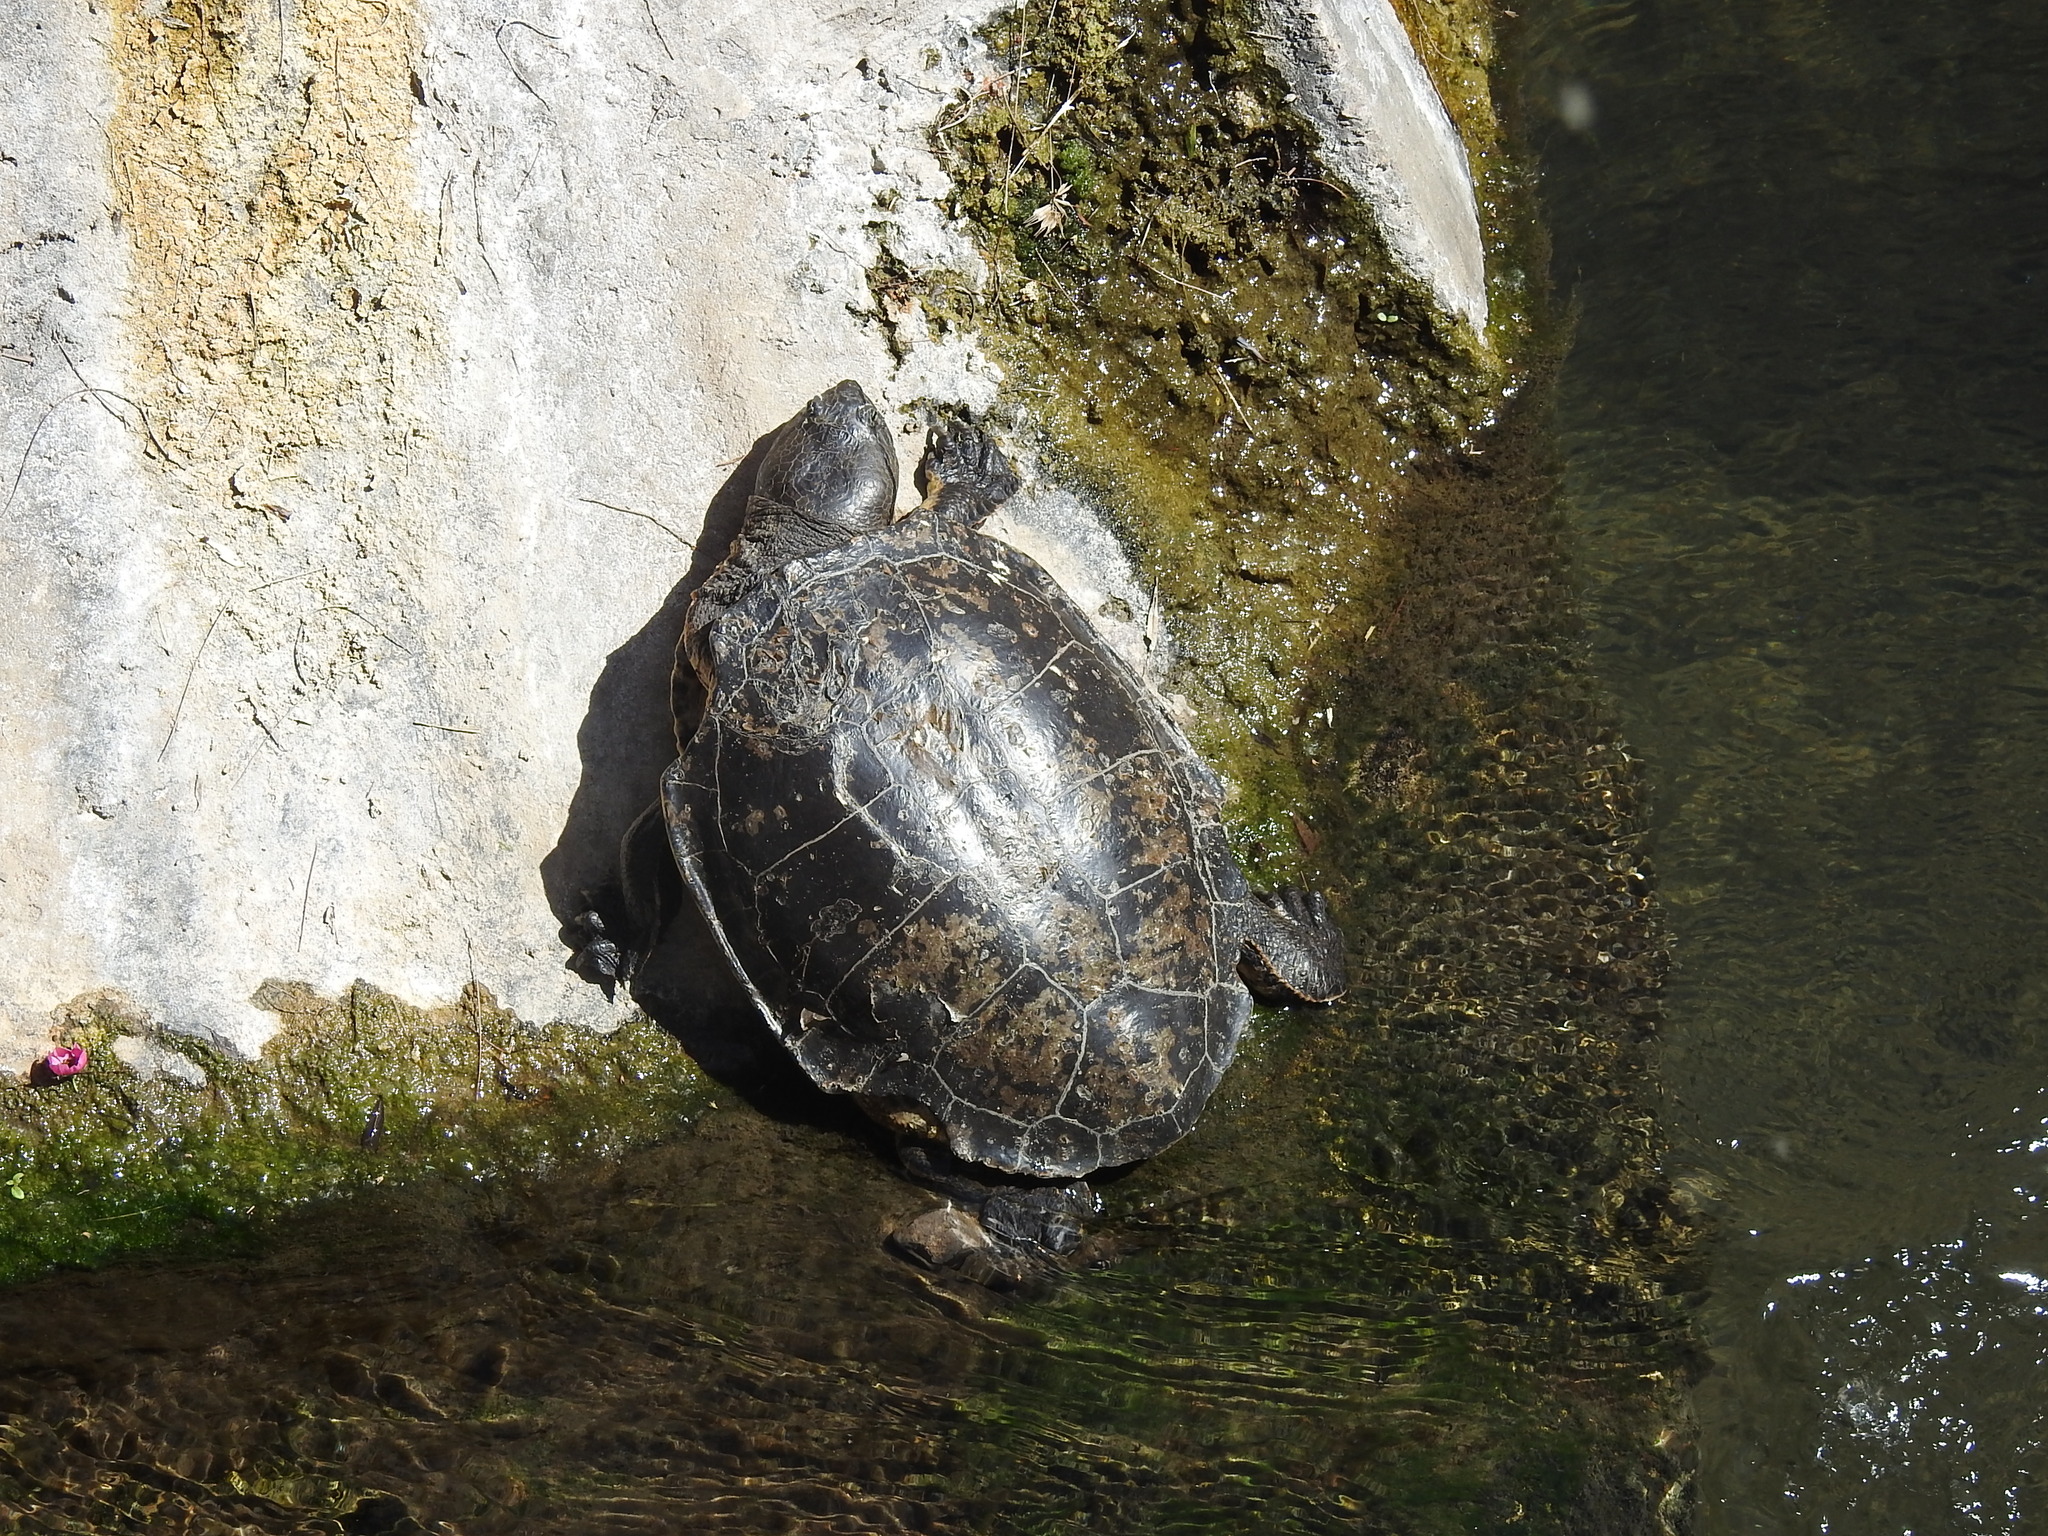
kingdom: Animalia
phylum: Chordata
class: Testudines
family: Chelidae
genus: Phrynops
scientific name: Phrynops hilarii
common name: Side-necked turtle of saint hillaire
